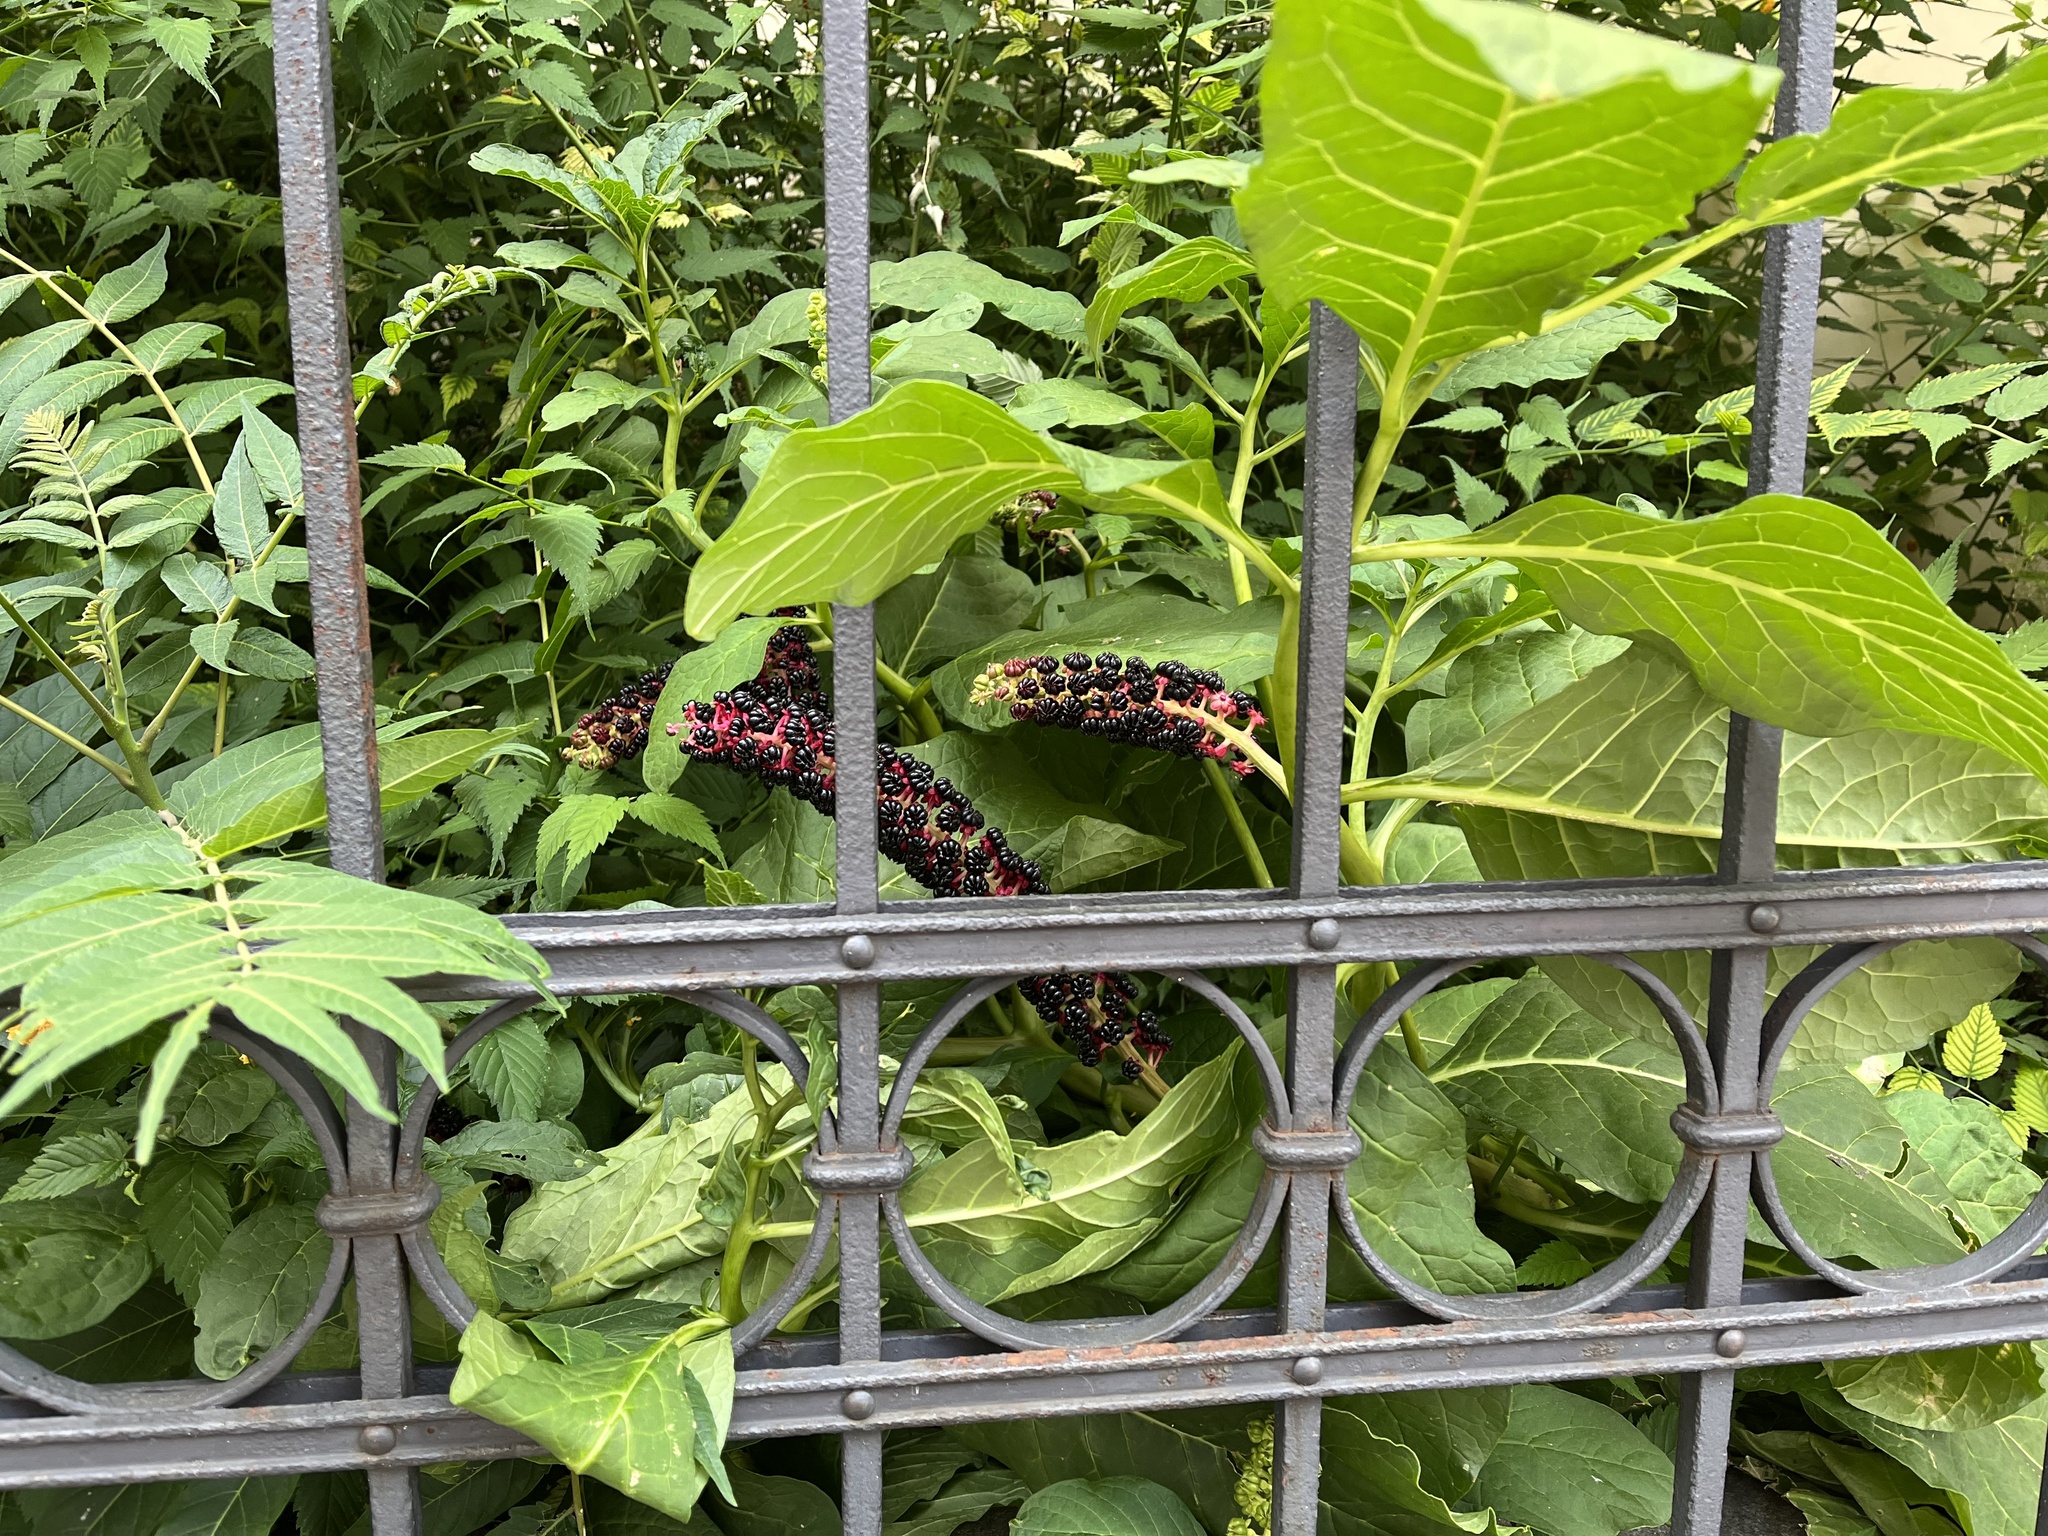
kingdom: Plantae
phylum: Tracheophyta
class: Magnoliopsida
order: Caryophyllales
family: Phytolaccaceae
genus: Phytolacca
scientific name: Phytolacca acinosa
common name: Indian pokeweed
